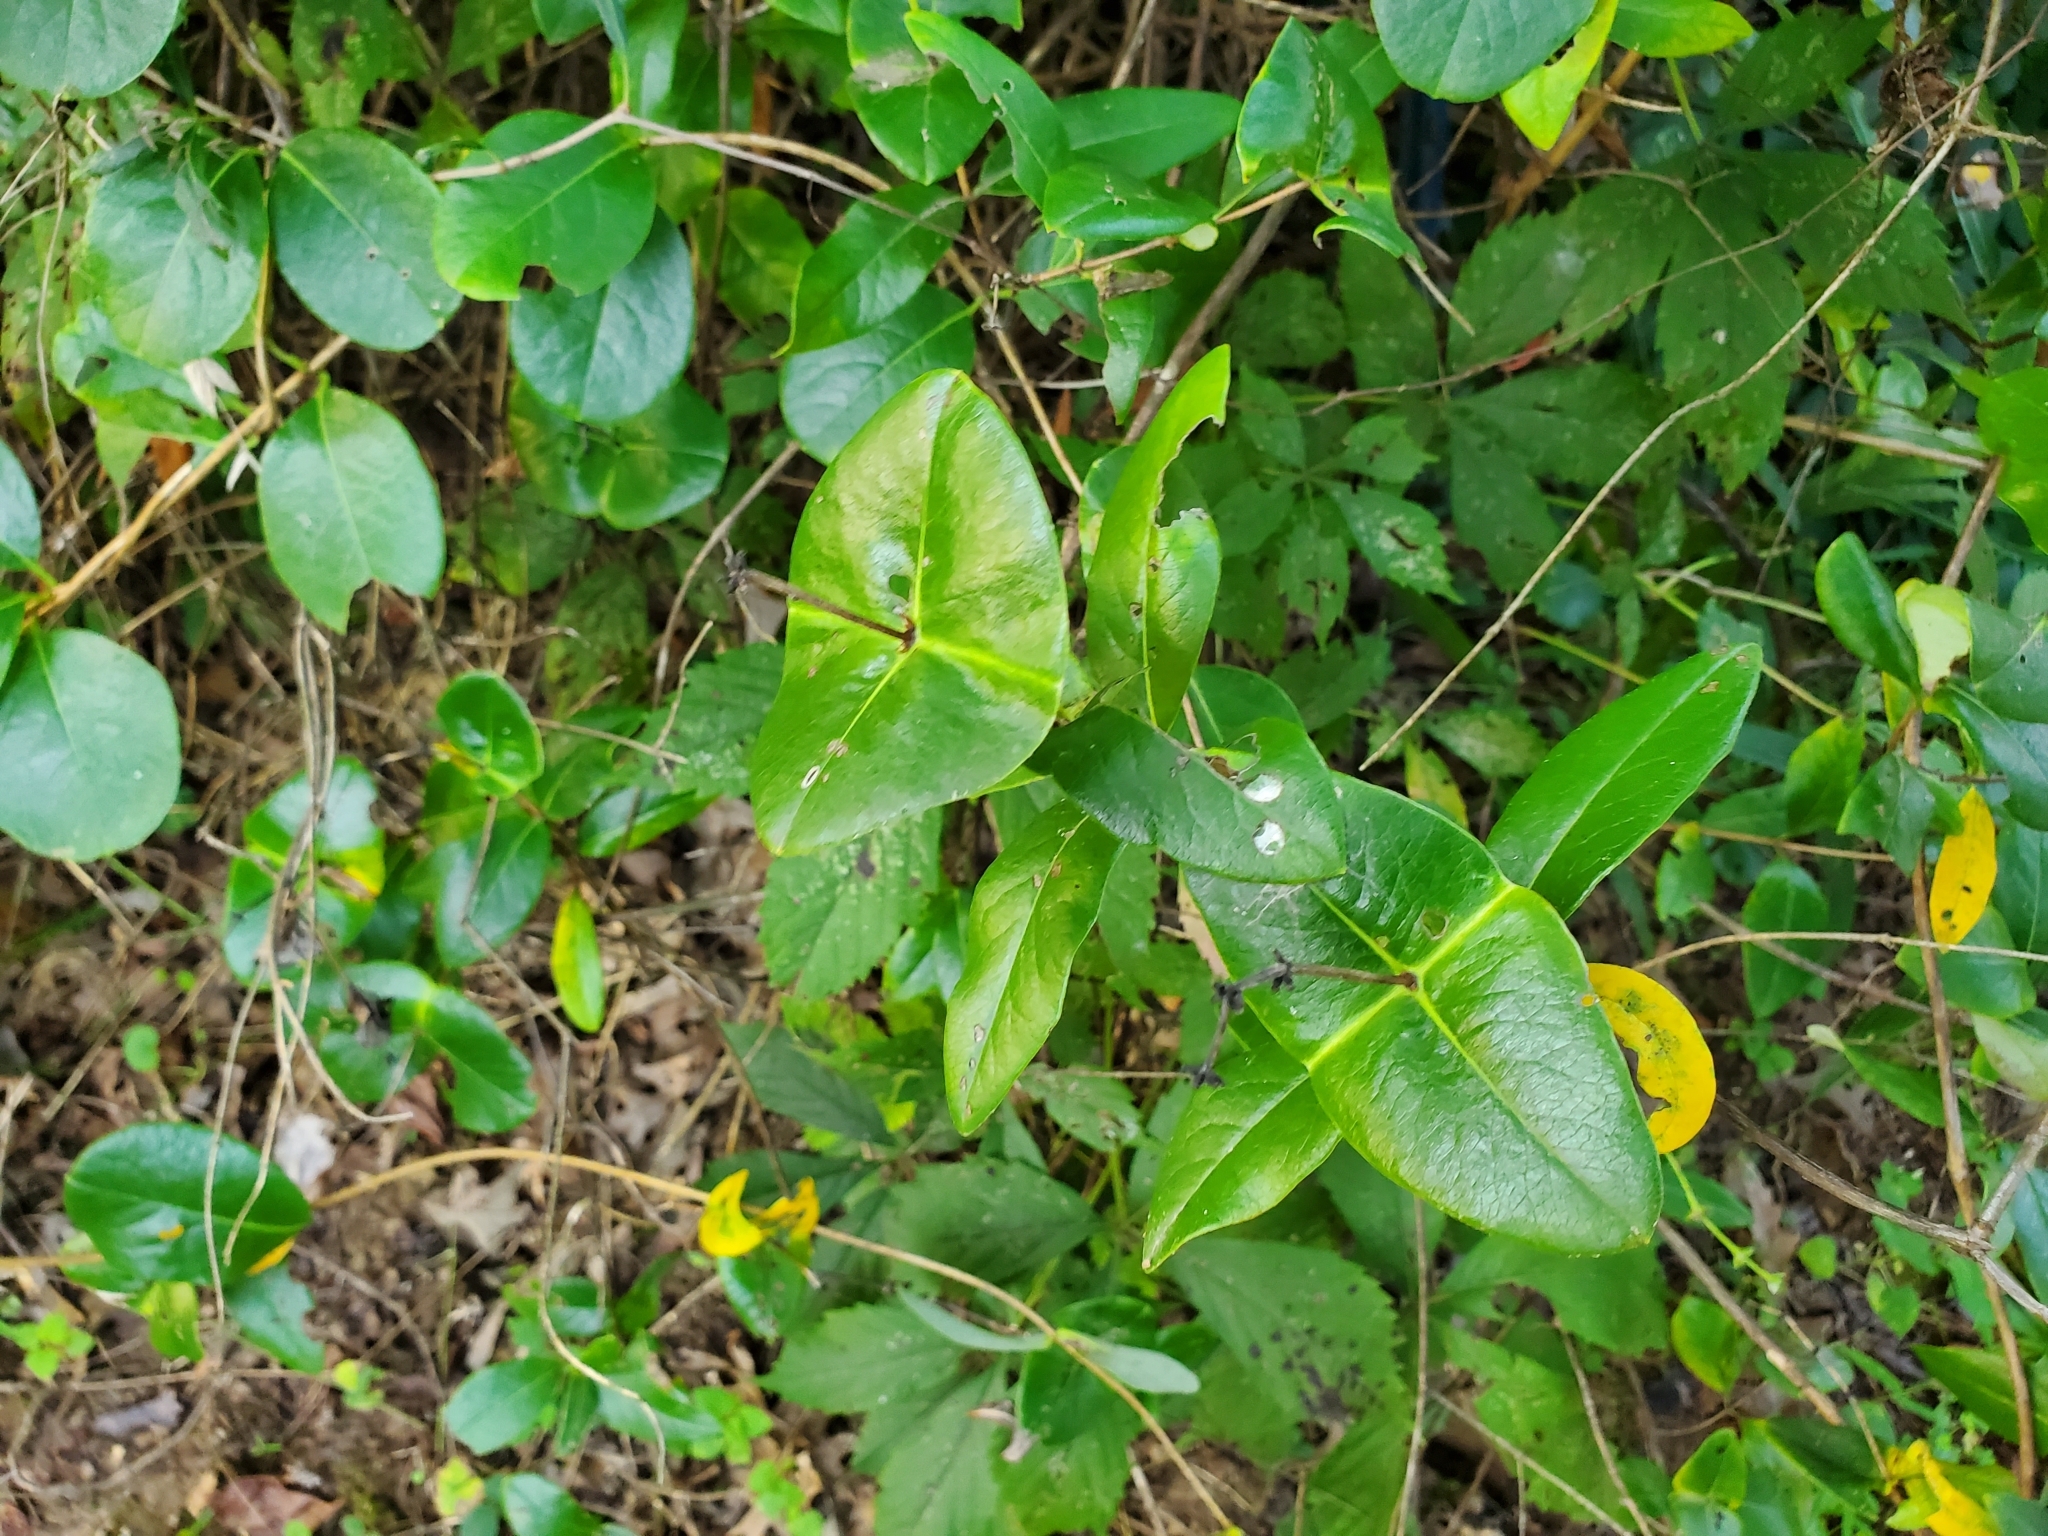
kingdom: Plantae
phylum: Tracheophyta
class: Magnoliopsida
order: Dipsacales
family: Caprifoliaceae
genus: Lonicera
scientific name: Lonicera sempervirens
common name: Coral honeysuckle
